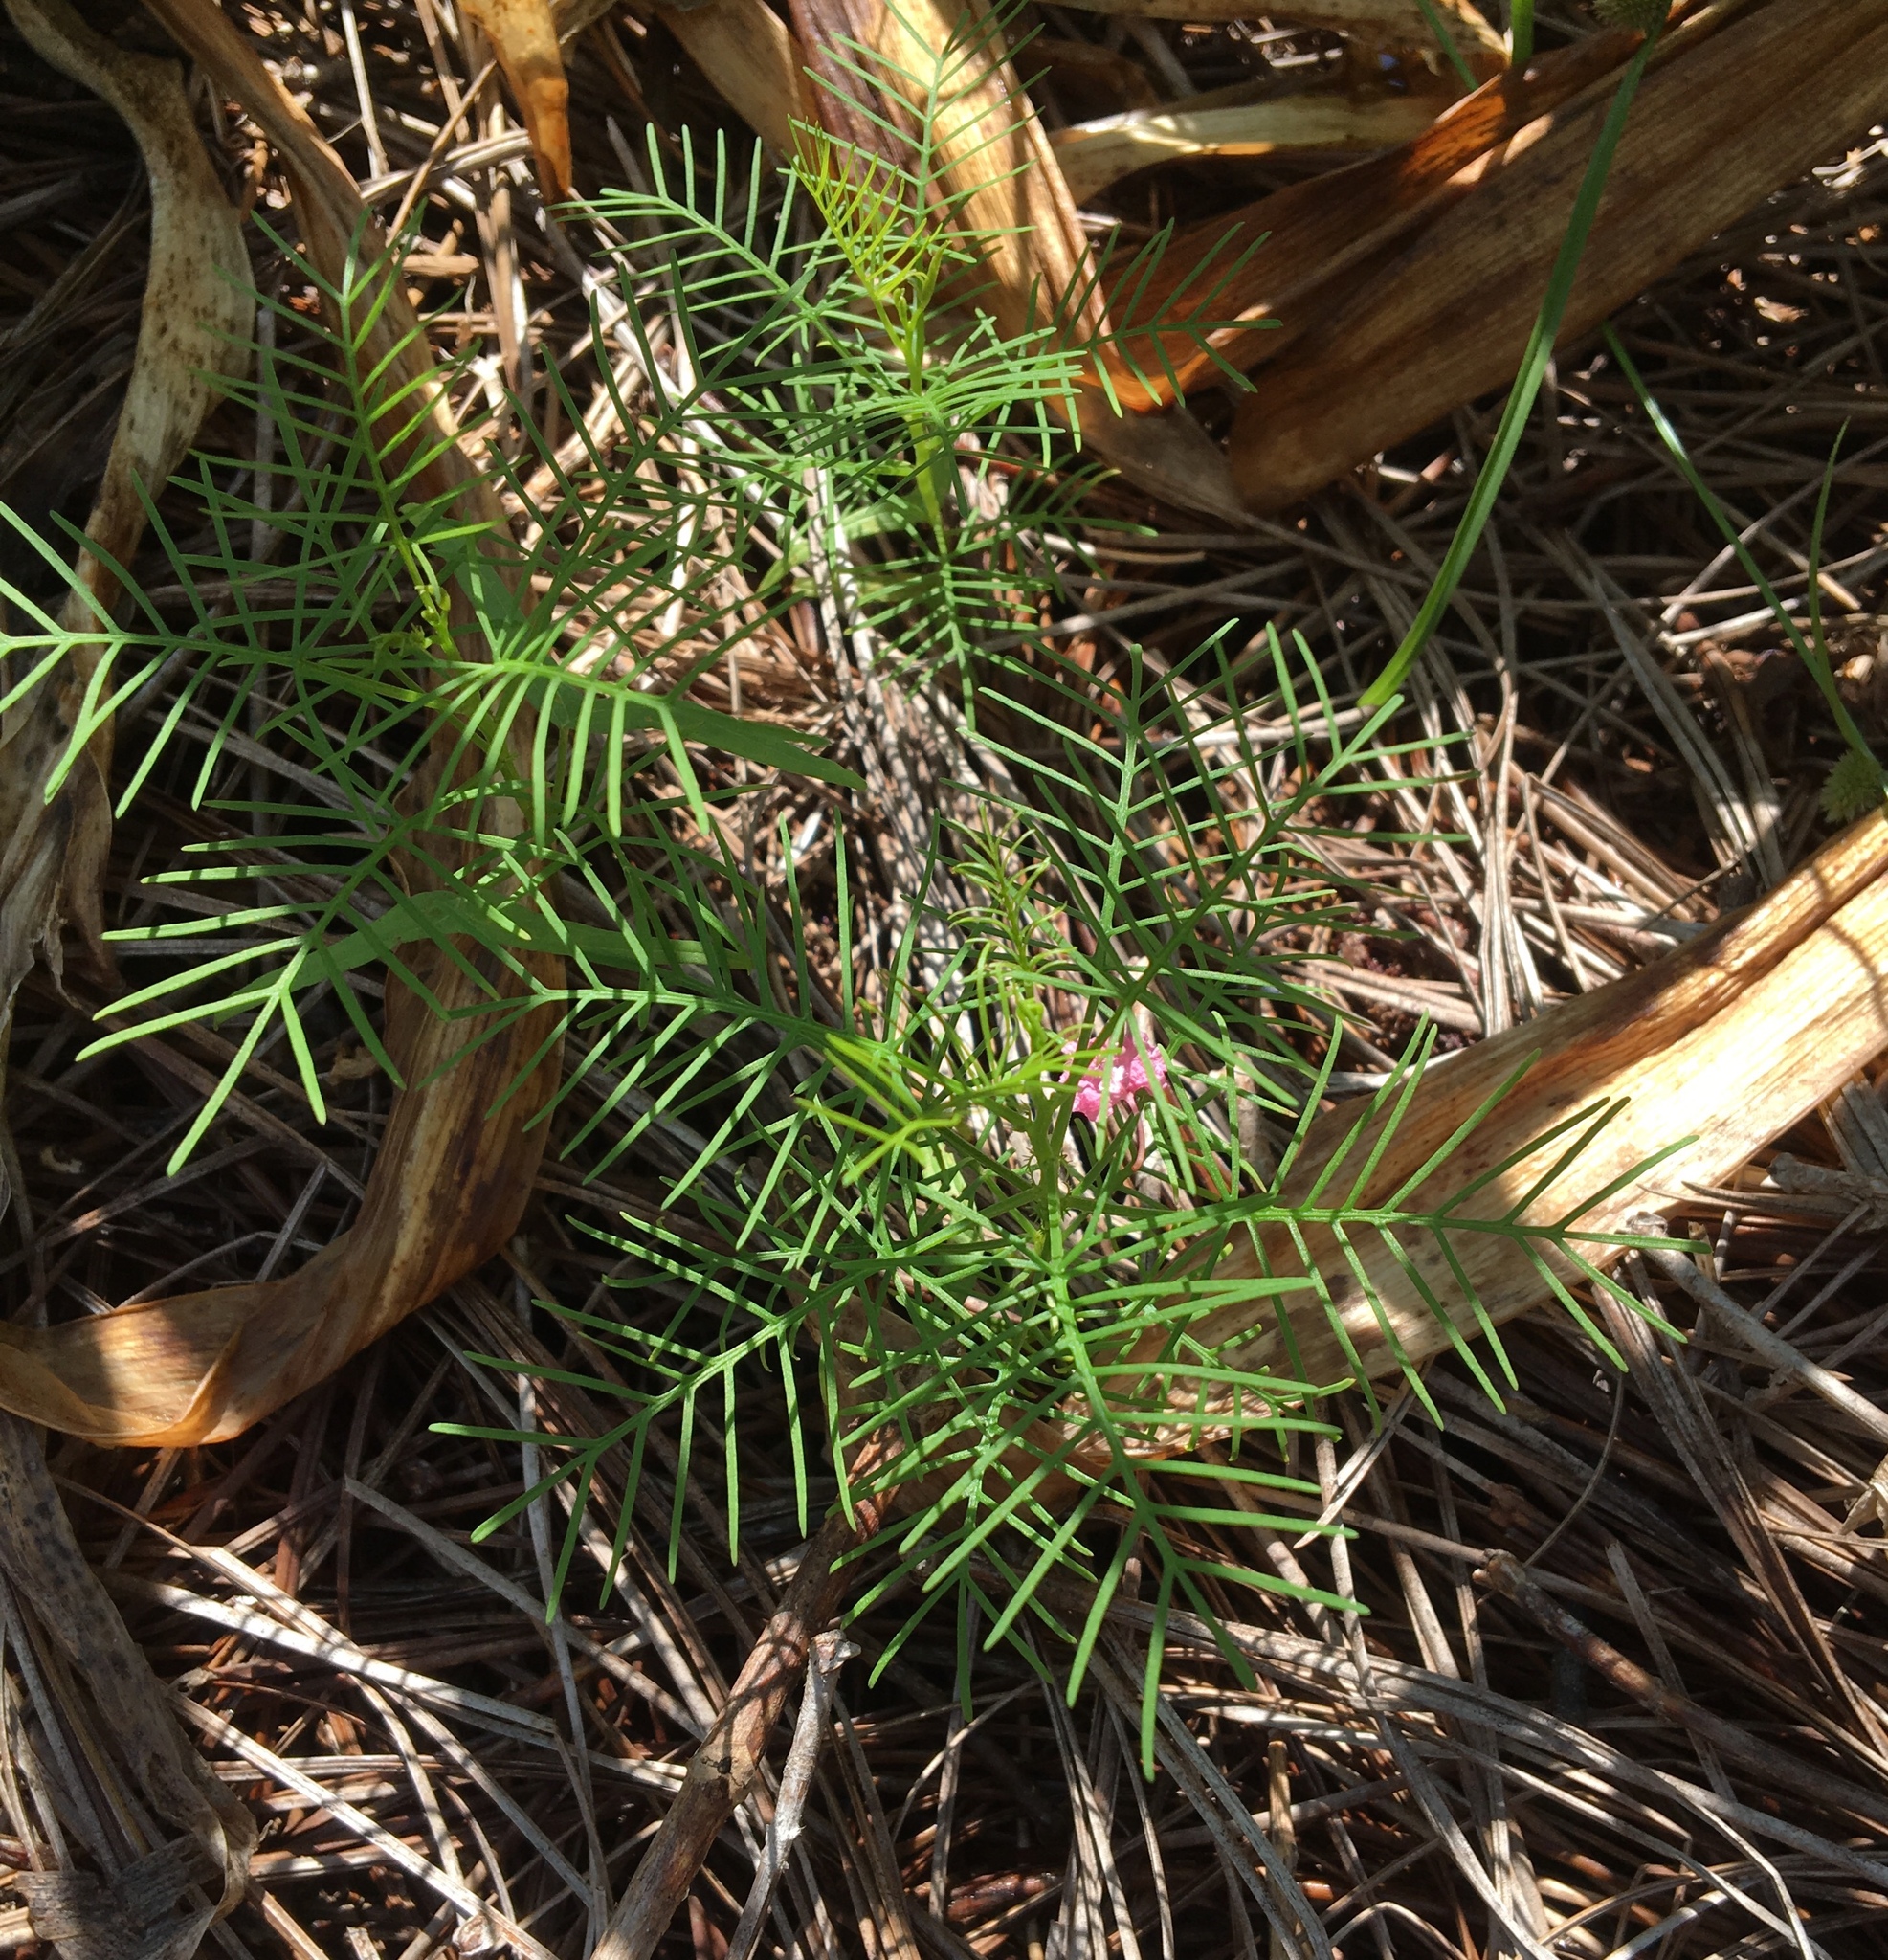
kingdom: Plantae
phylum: Tracheophyta
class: Magnoliopsida
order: Solanales
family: Convolvulaceae
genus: Ipomoea
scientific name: Ipomoea quamoclit
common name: Cypress vine
